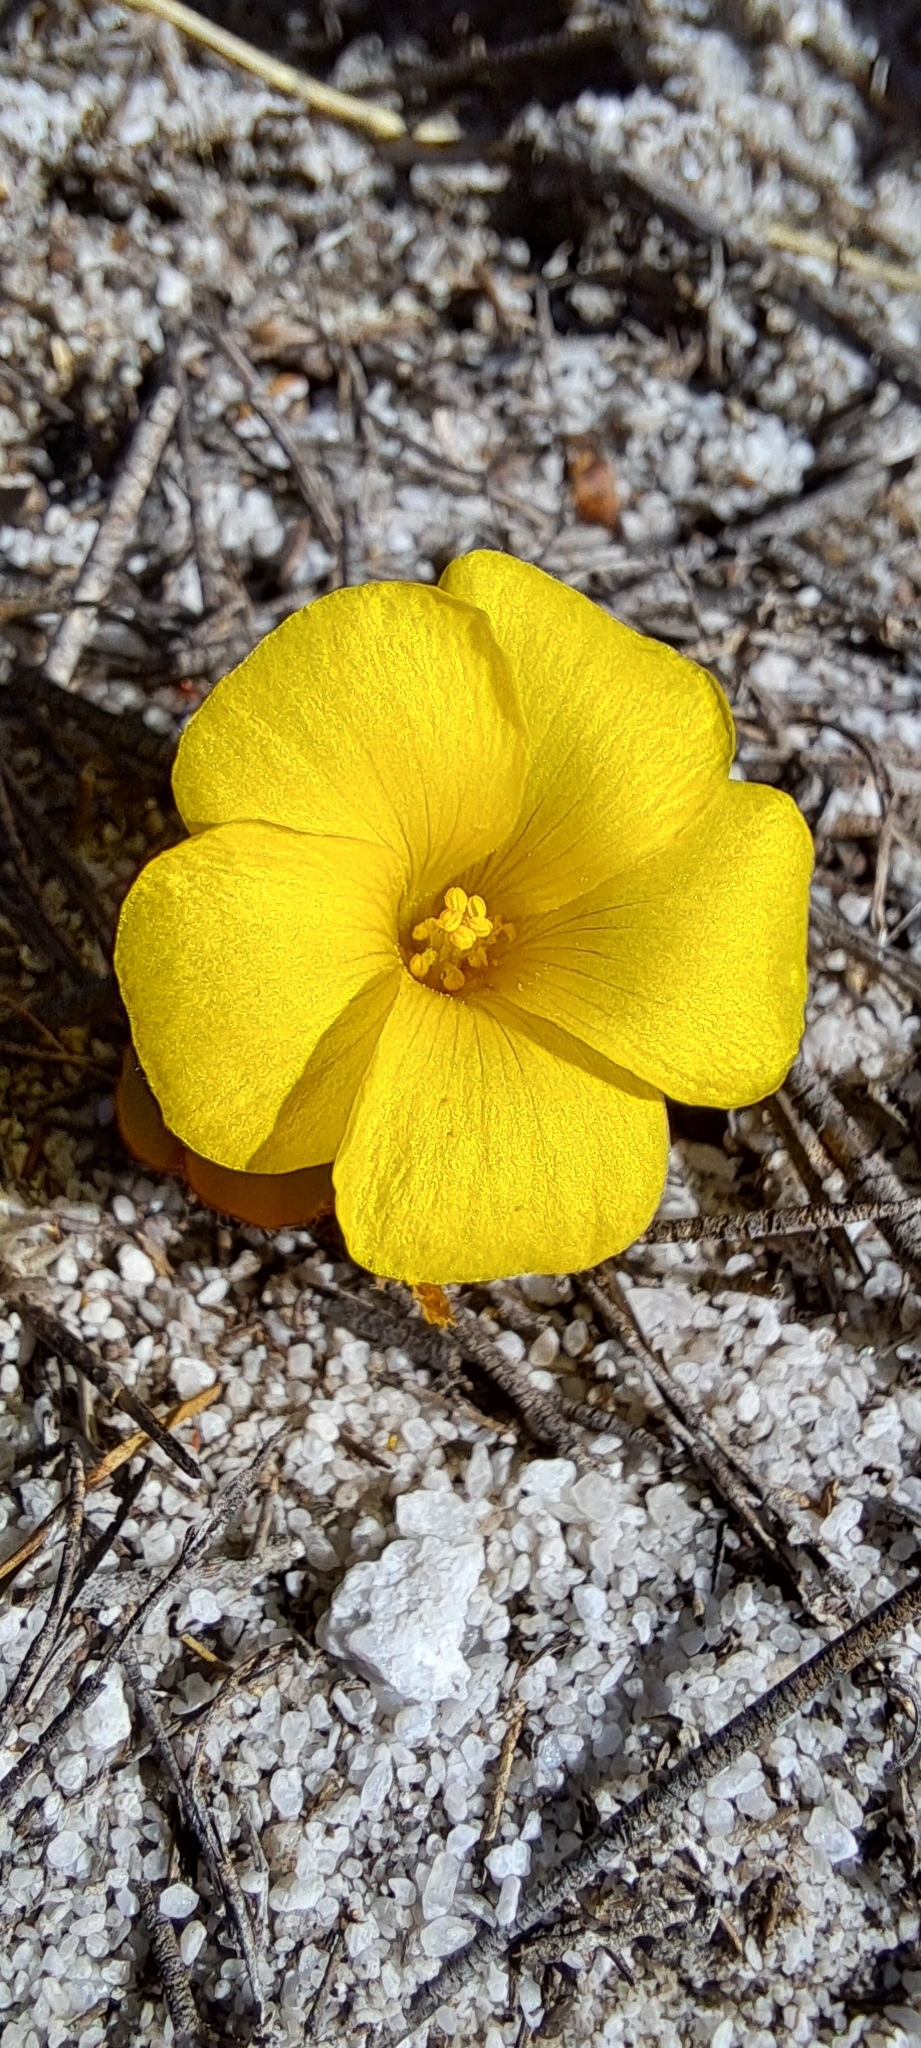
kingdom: Plantae
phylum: Tracheophyta
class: Magnoliopsida
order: Oxalidales
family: Oxalidaceae
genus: Oxalis
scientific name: Oxalis luteola
